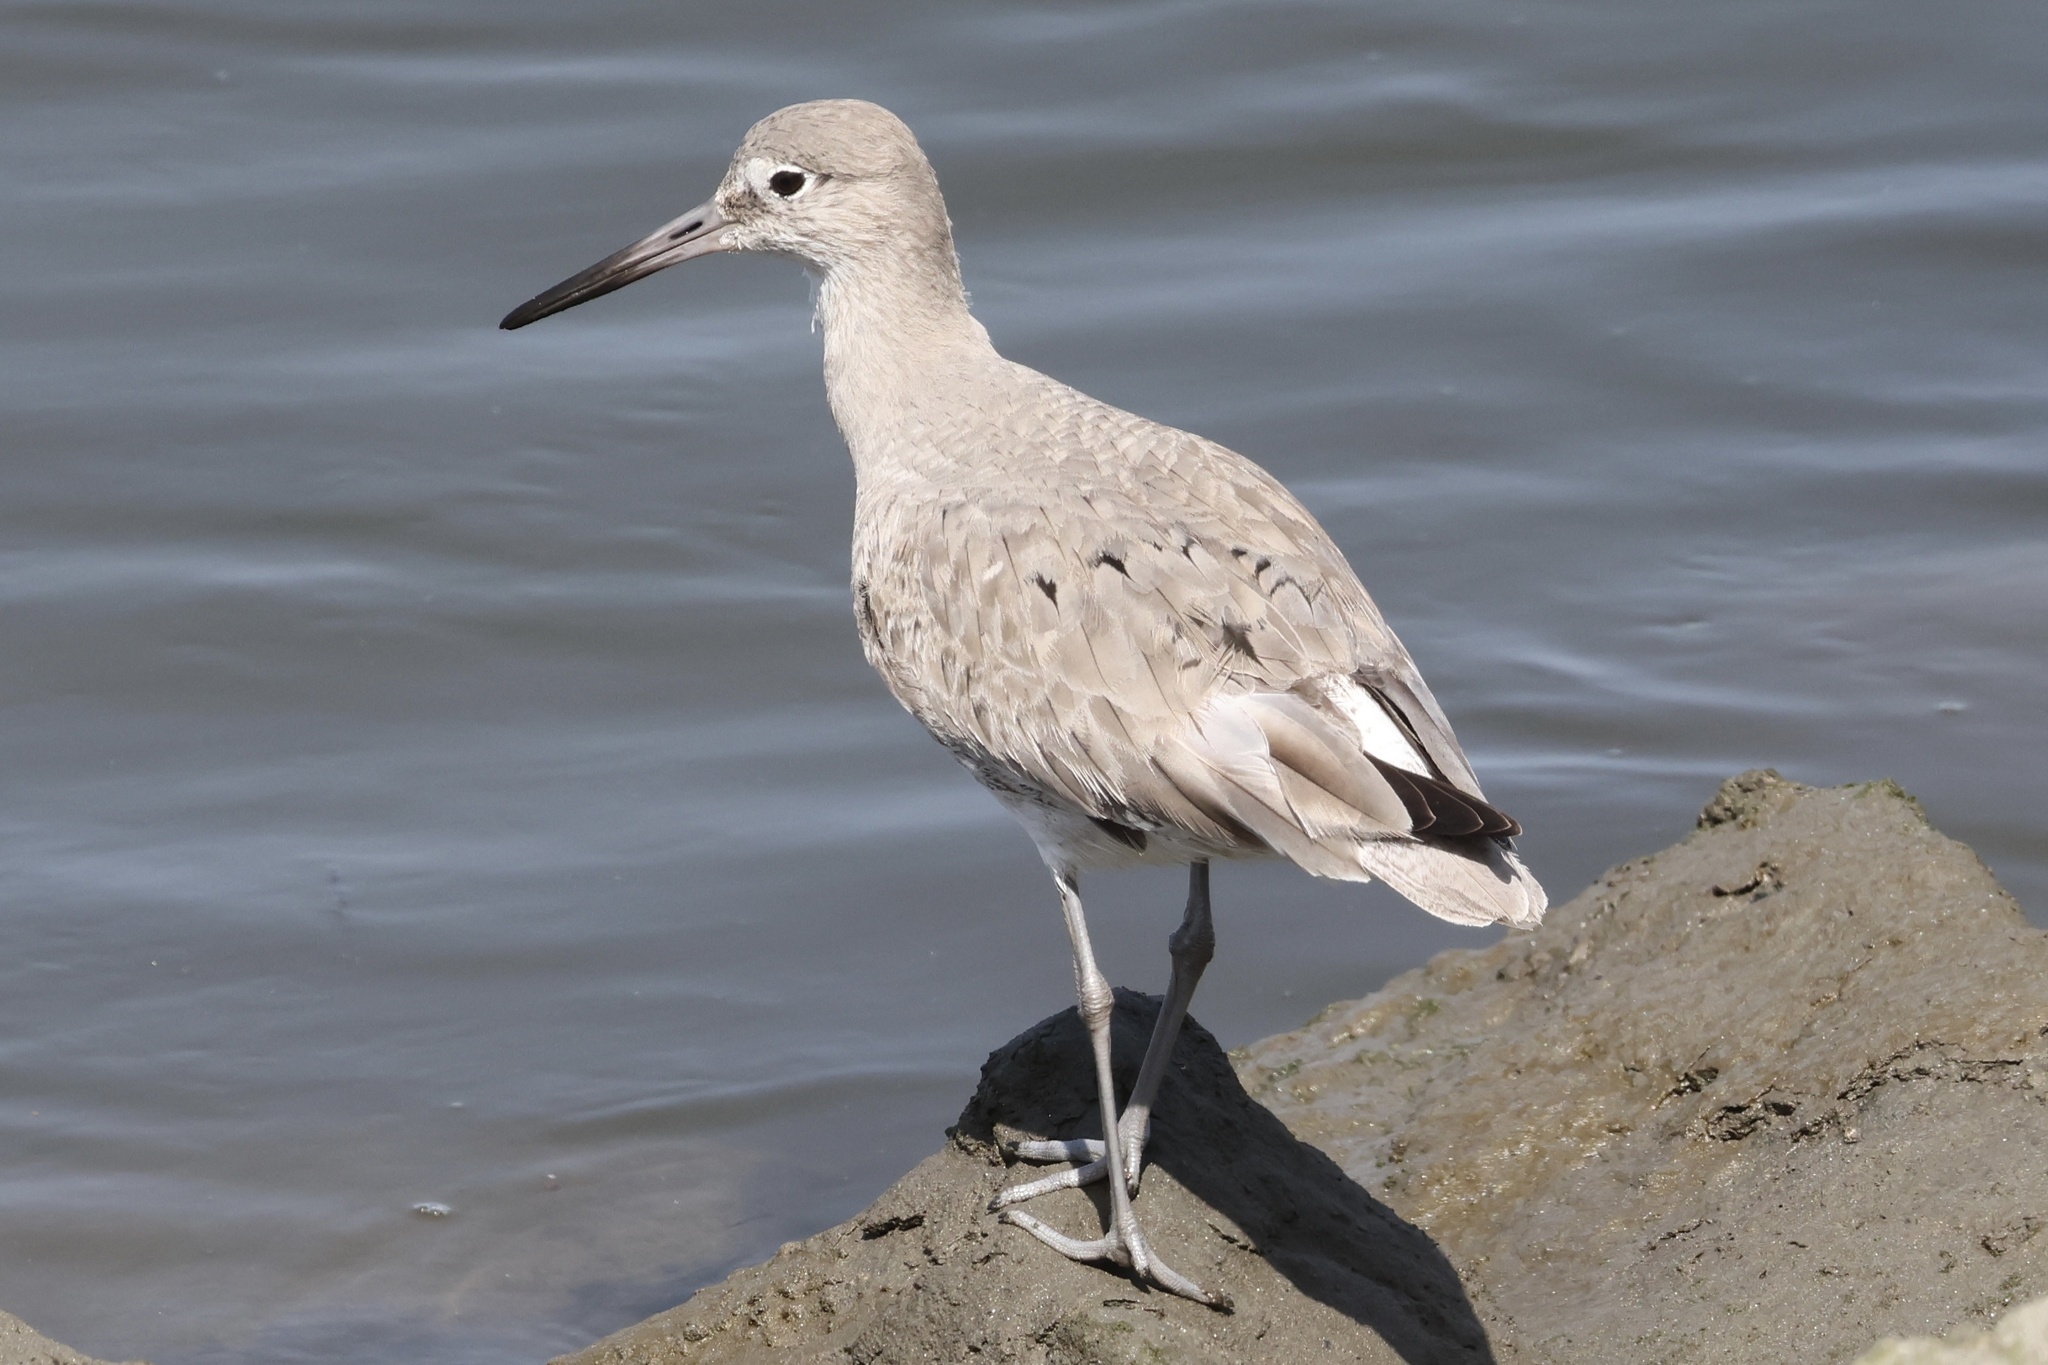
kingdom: Animalia
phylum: Chordata
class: Aves
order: Charadriiformes
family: Scolopacidae
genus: Tringa
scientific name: Tringa semipalmata
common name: Willet
